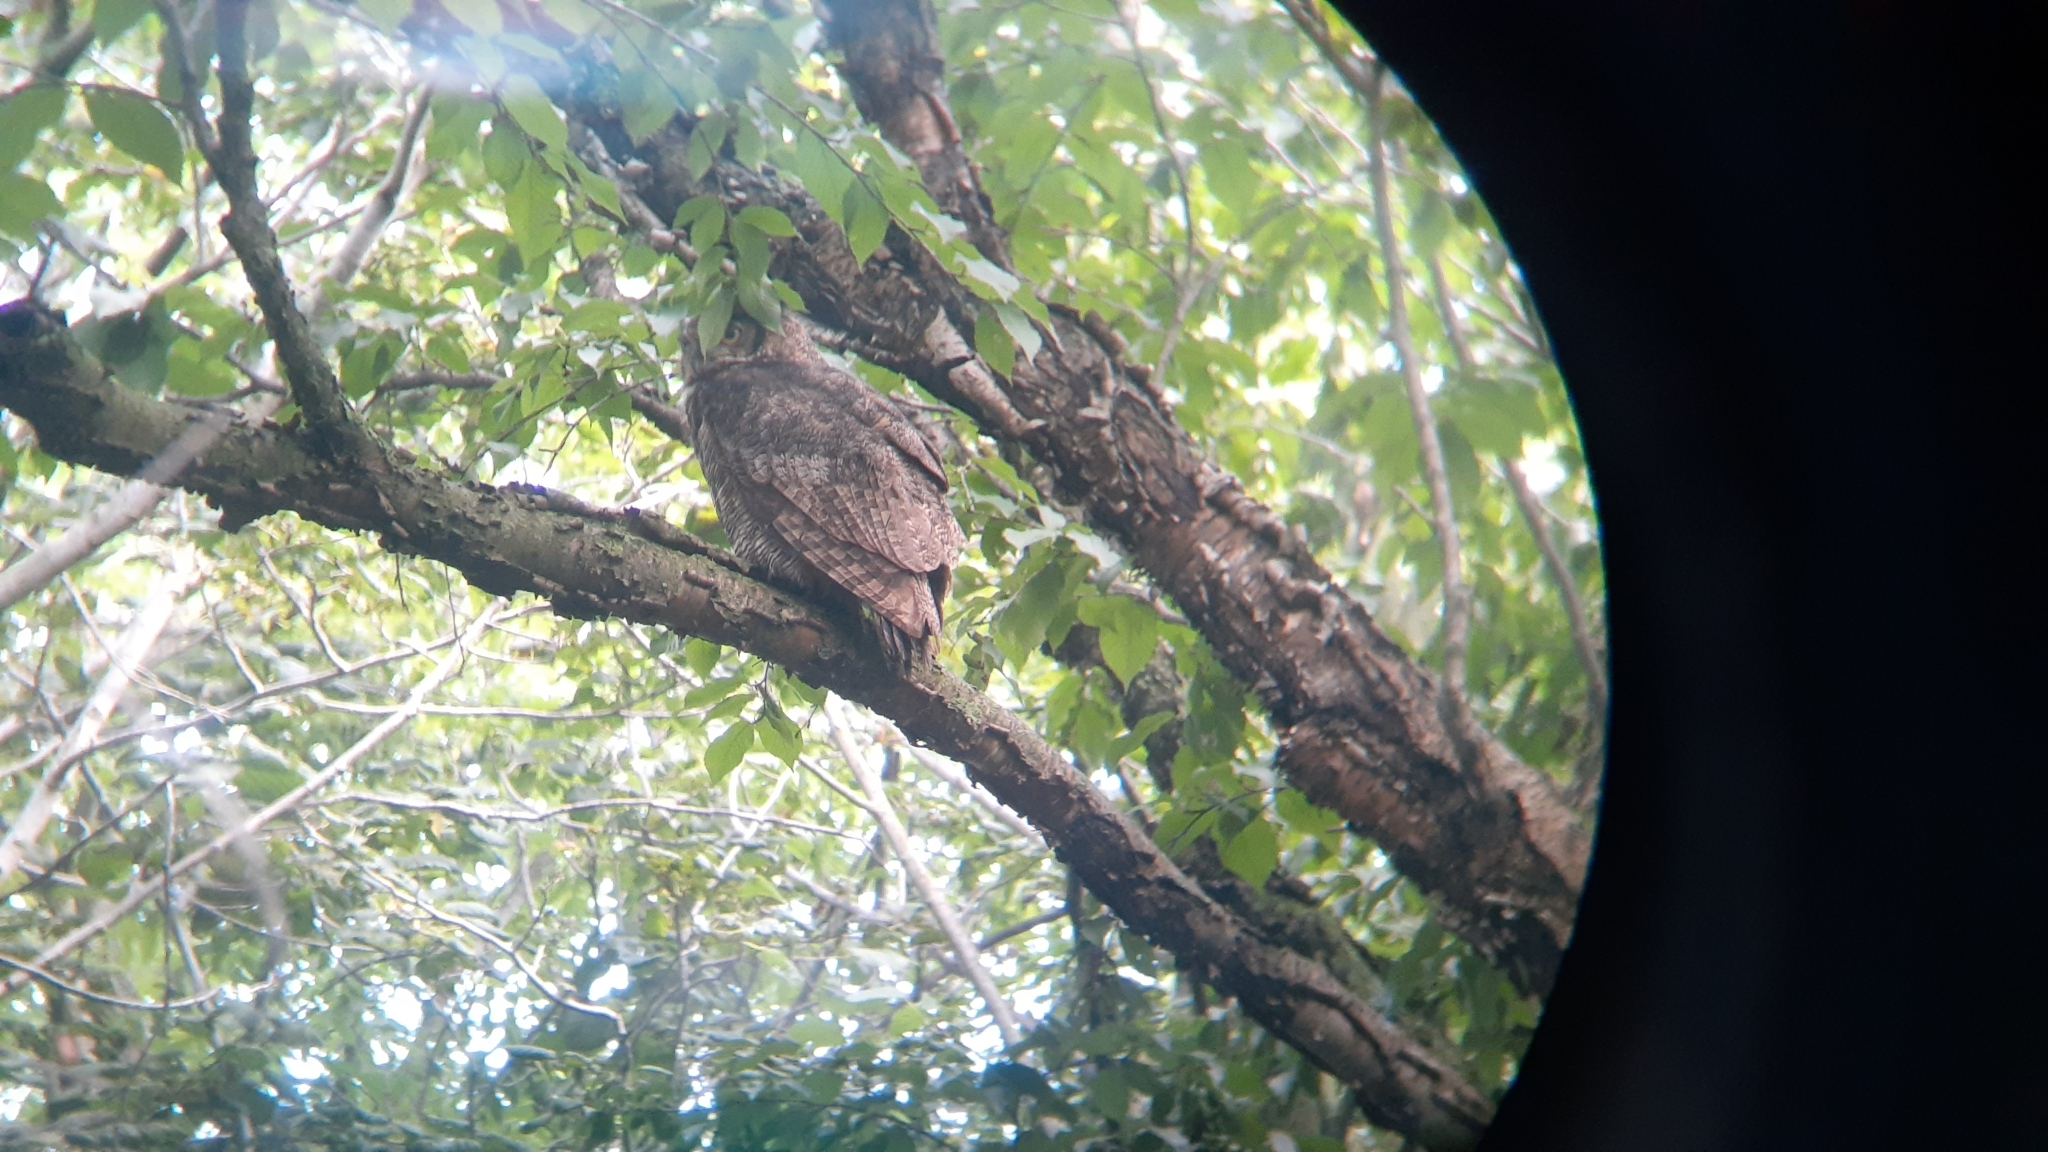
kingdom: Animalia
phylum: Chordata
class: Aves
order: Strigiformes
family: Strigidae
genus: Bubo
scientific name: Bubo virginianus
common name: Great horned owl
